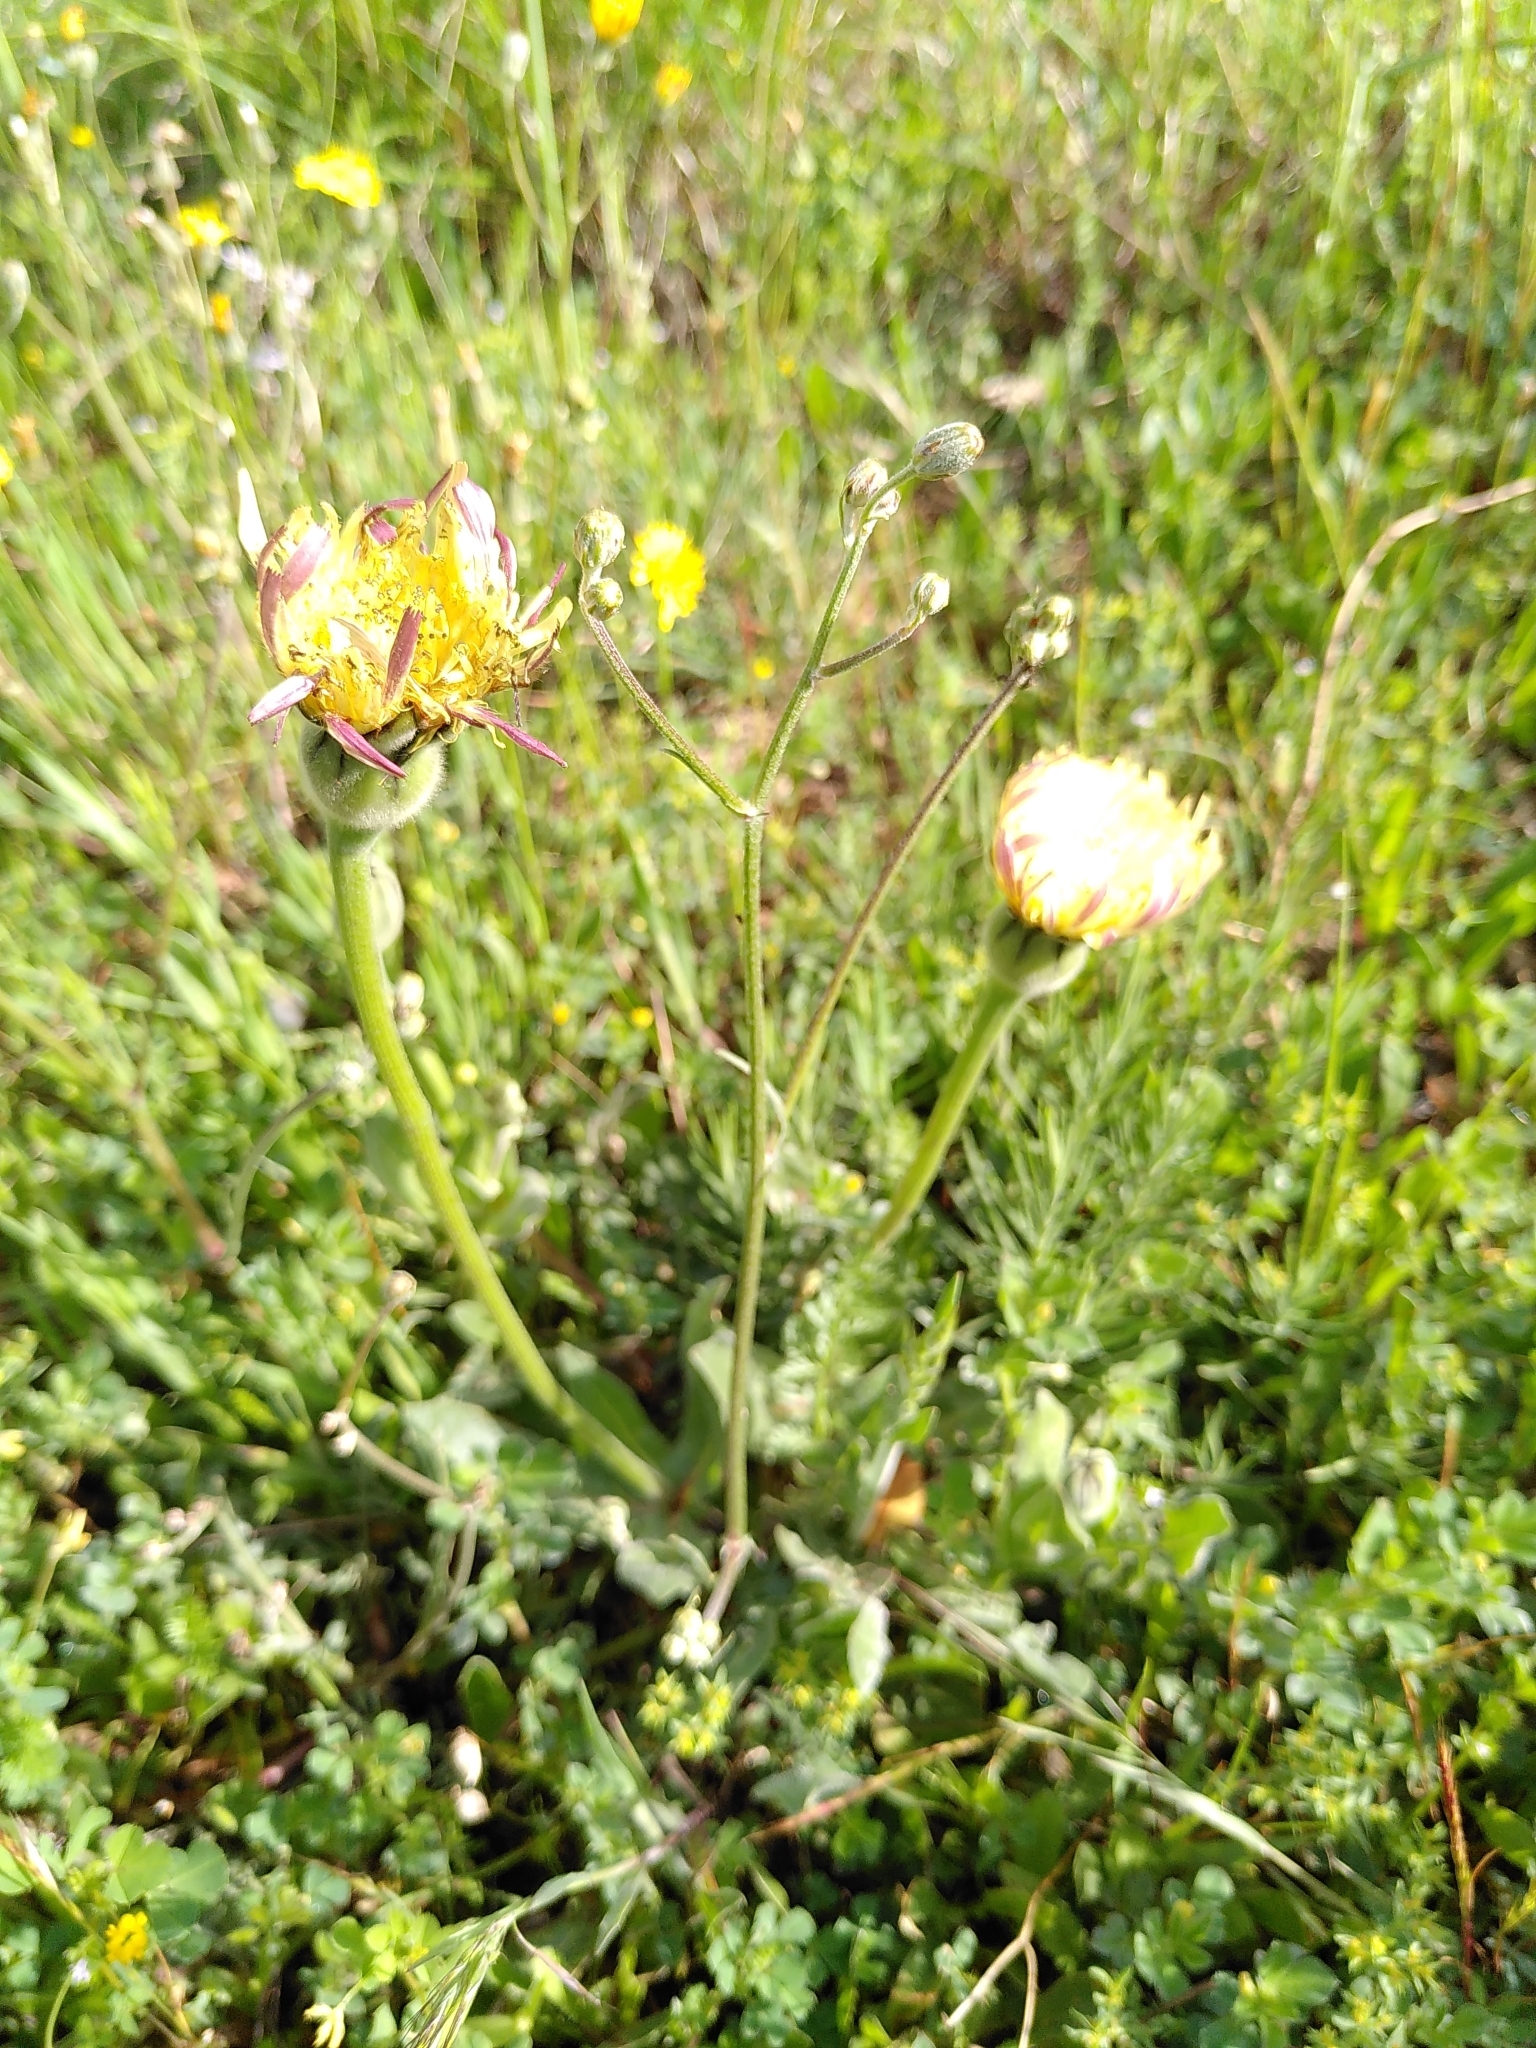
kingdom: Plantae
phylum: Tracheophyta
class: Magnoliopsida
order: Asterales
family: Asteraceae
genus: Urospermum
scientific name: Urospermum dalechampii
